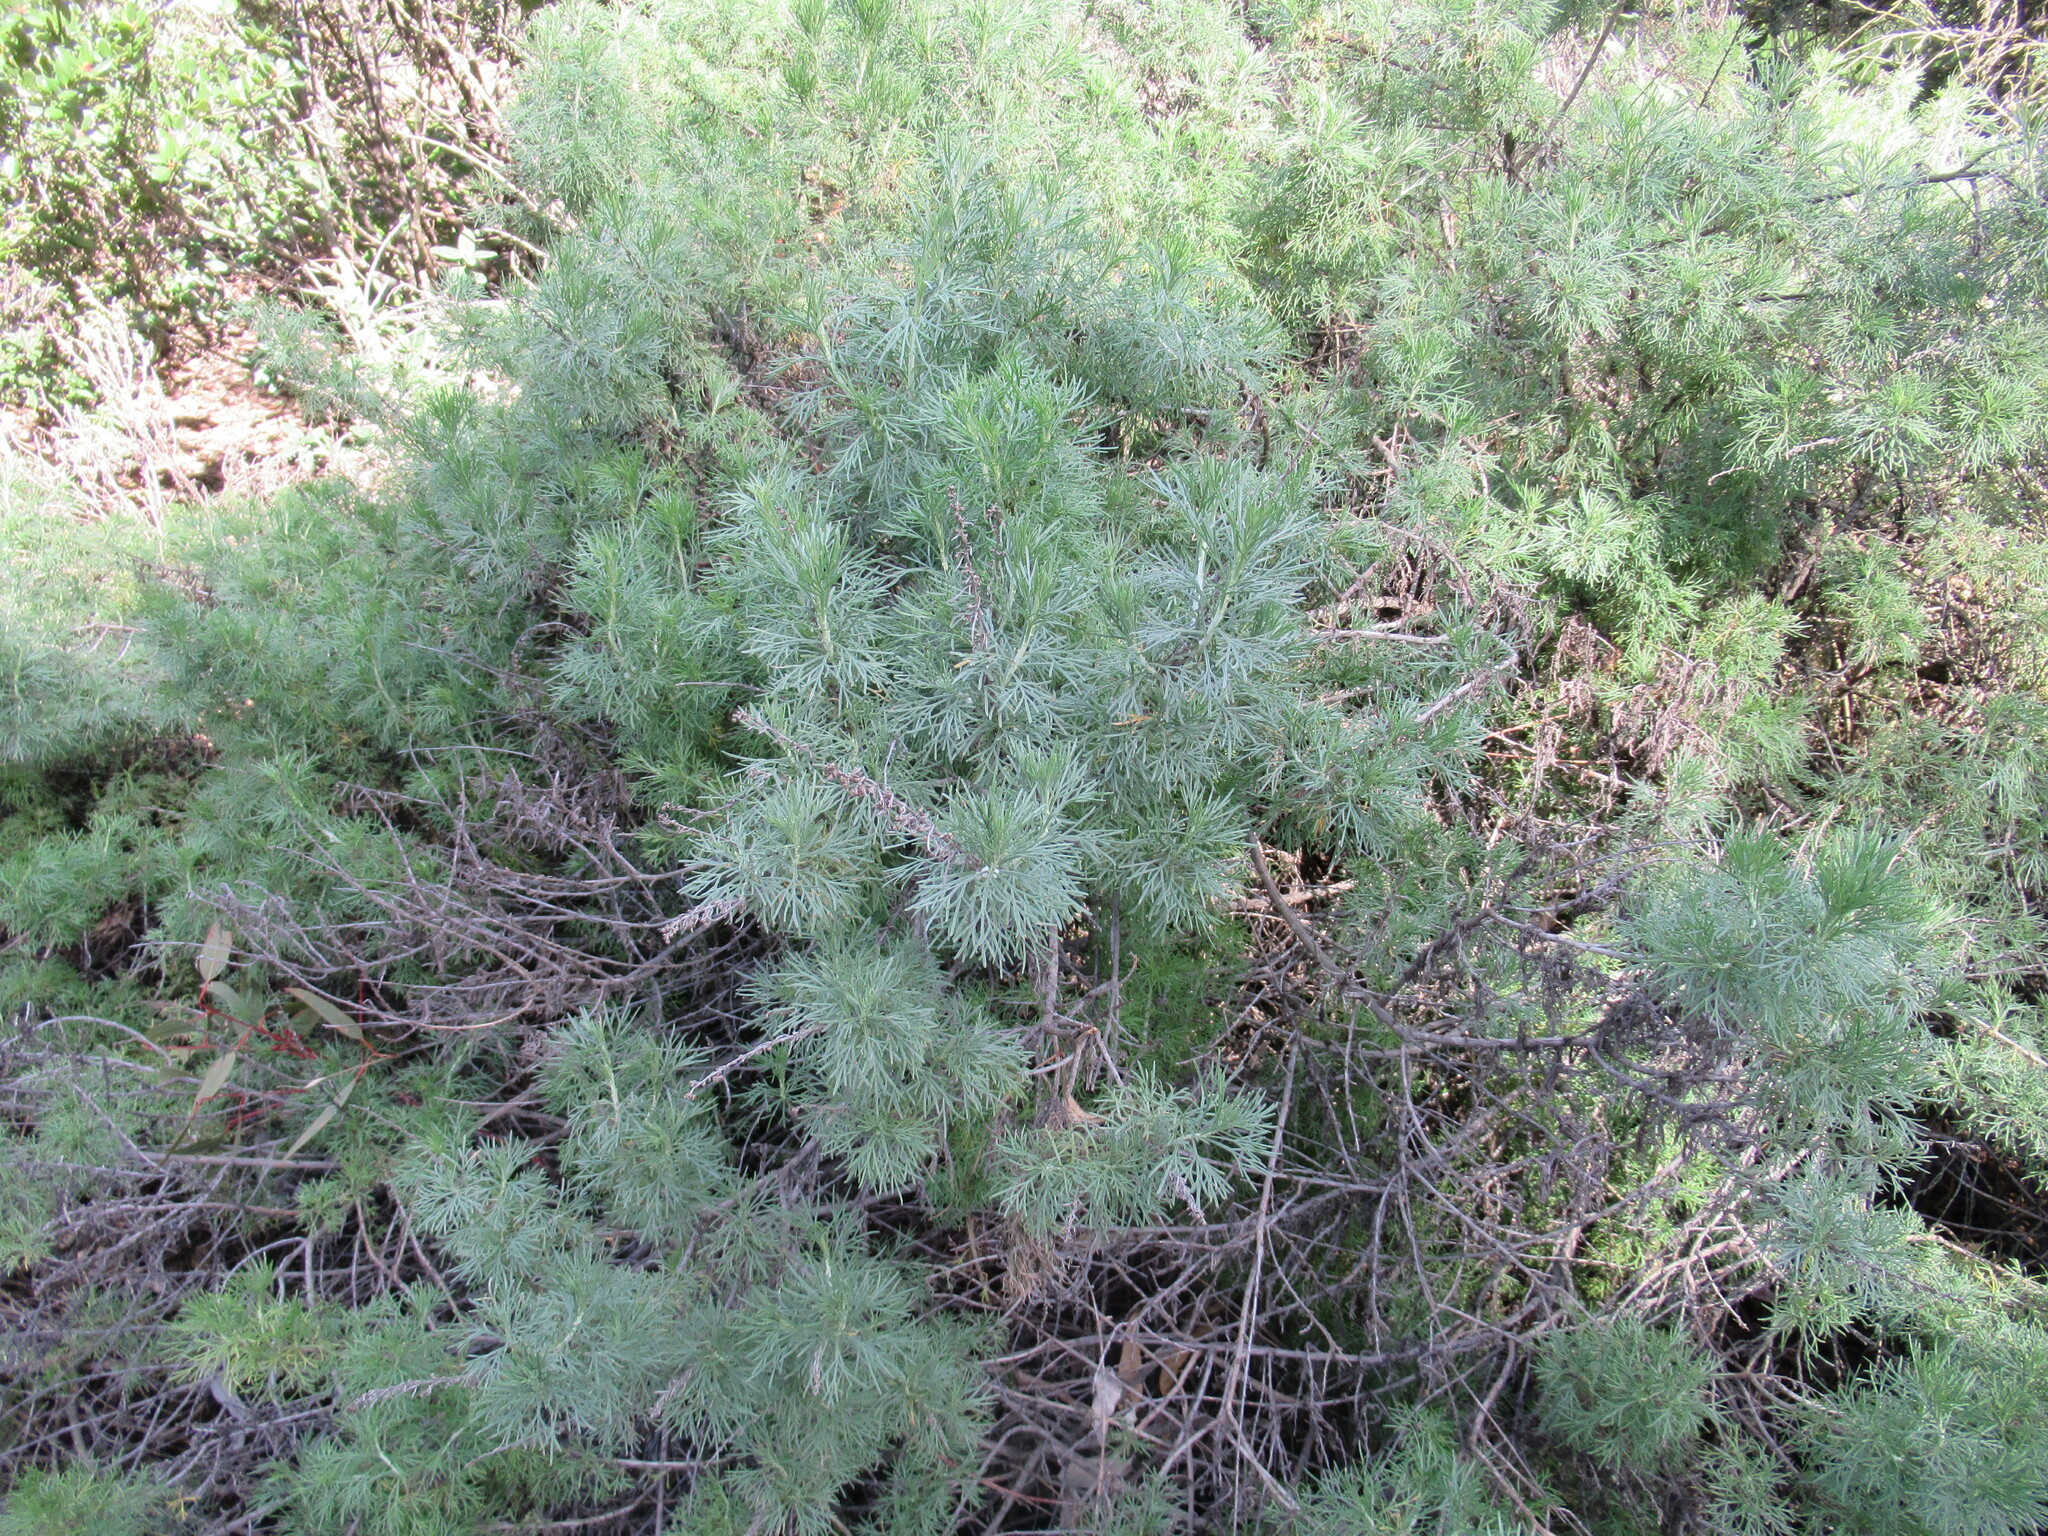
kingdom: Plantae
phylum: Tracheophyta
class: Magnoliopsida
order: Asterales
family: Asteraceae
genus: Artemisia
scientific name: Artemisia californica
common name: California sagebrush
